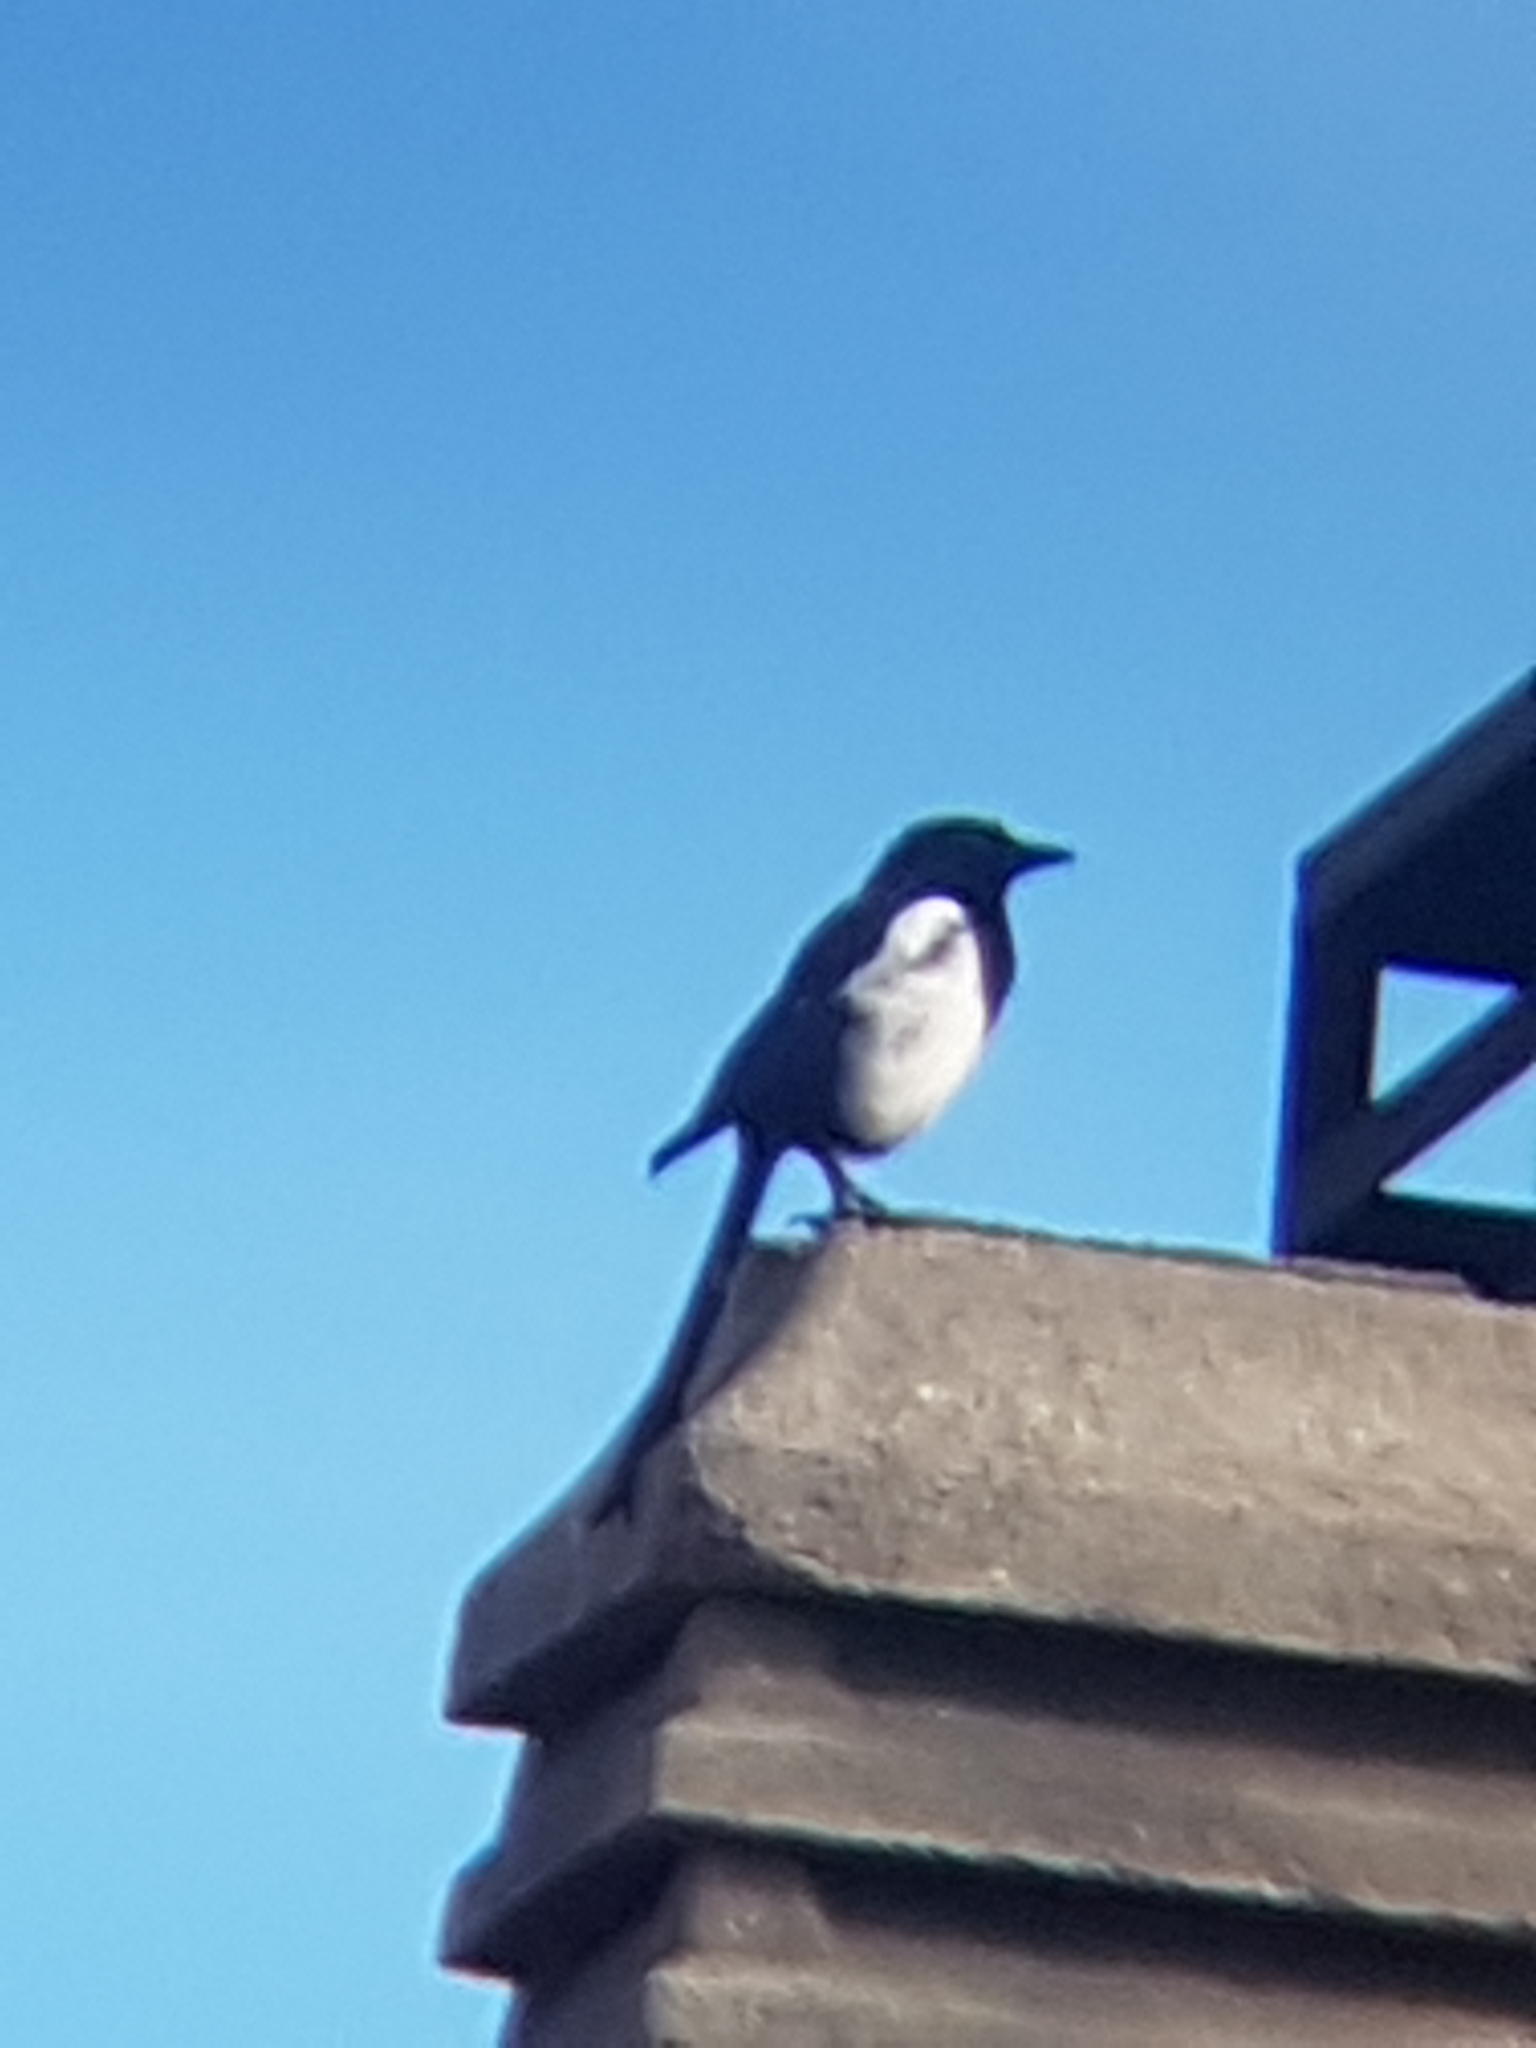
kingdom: Animalia
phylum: Chordata
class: Aves
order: Passeriformes
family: Corvidae
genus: Pica
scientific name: Pica pica
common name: Eurasian magpie
